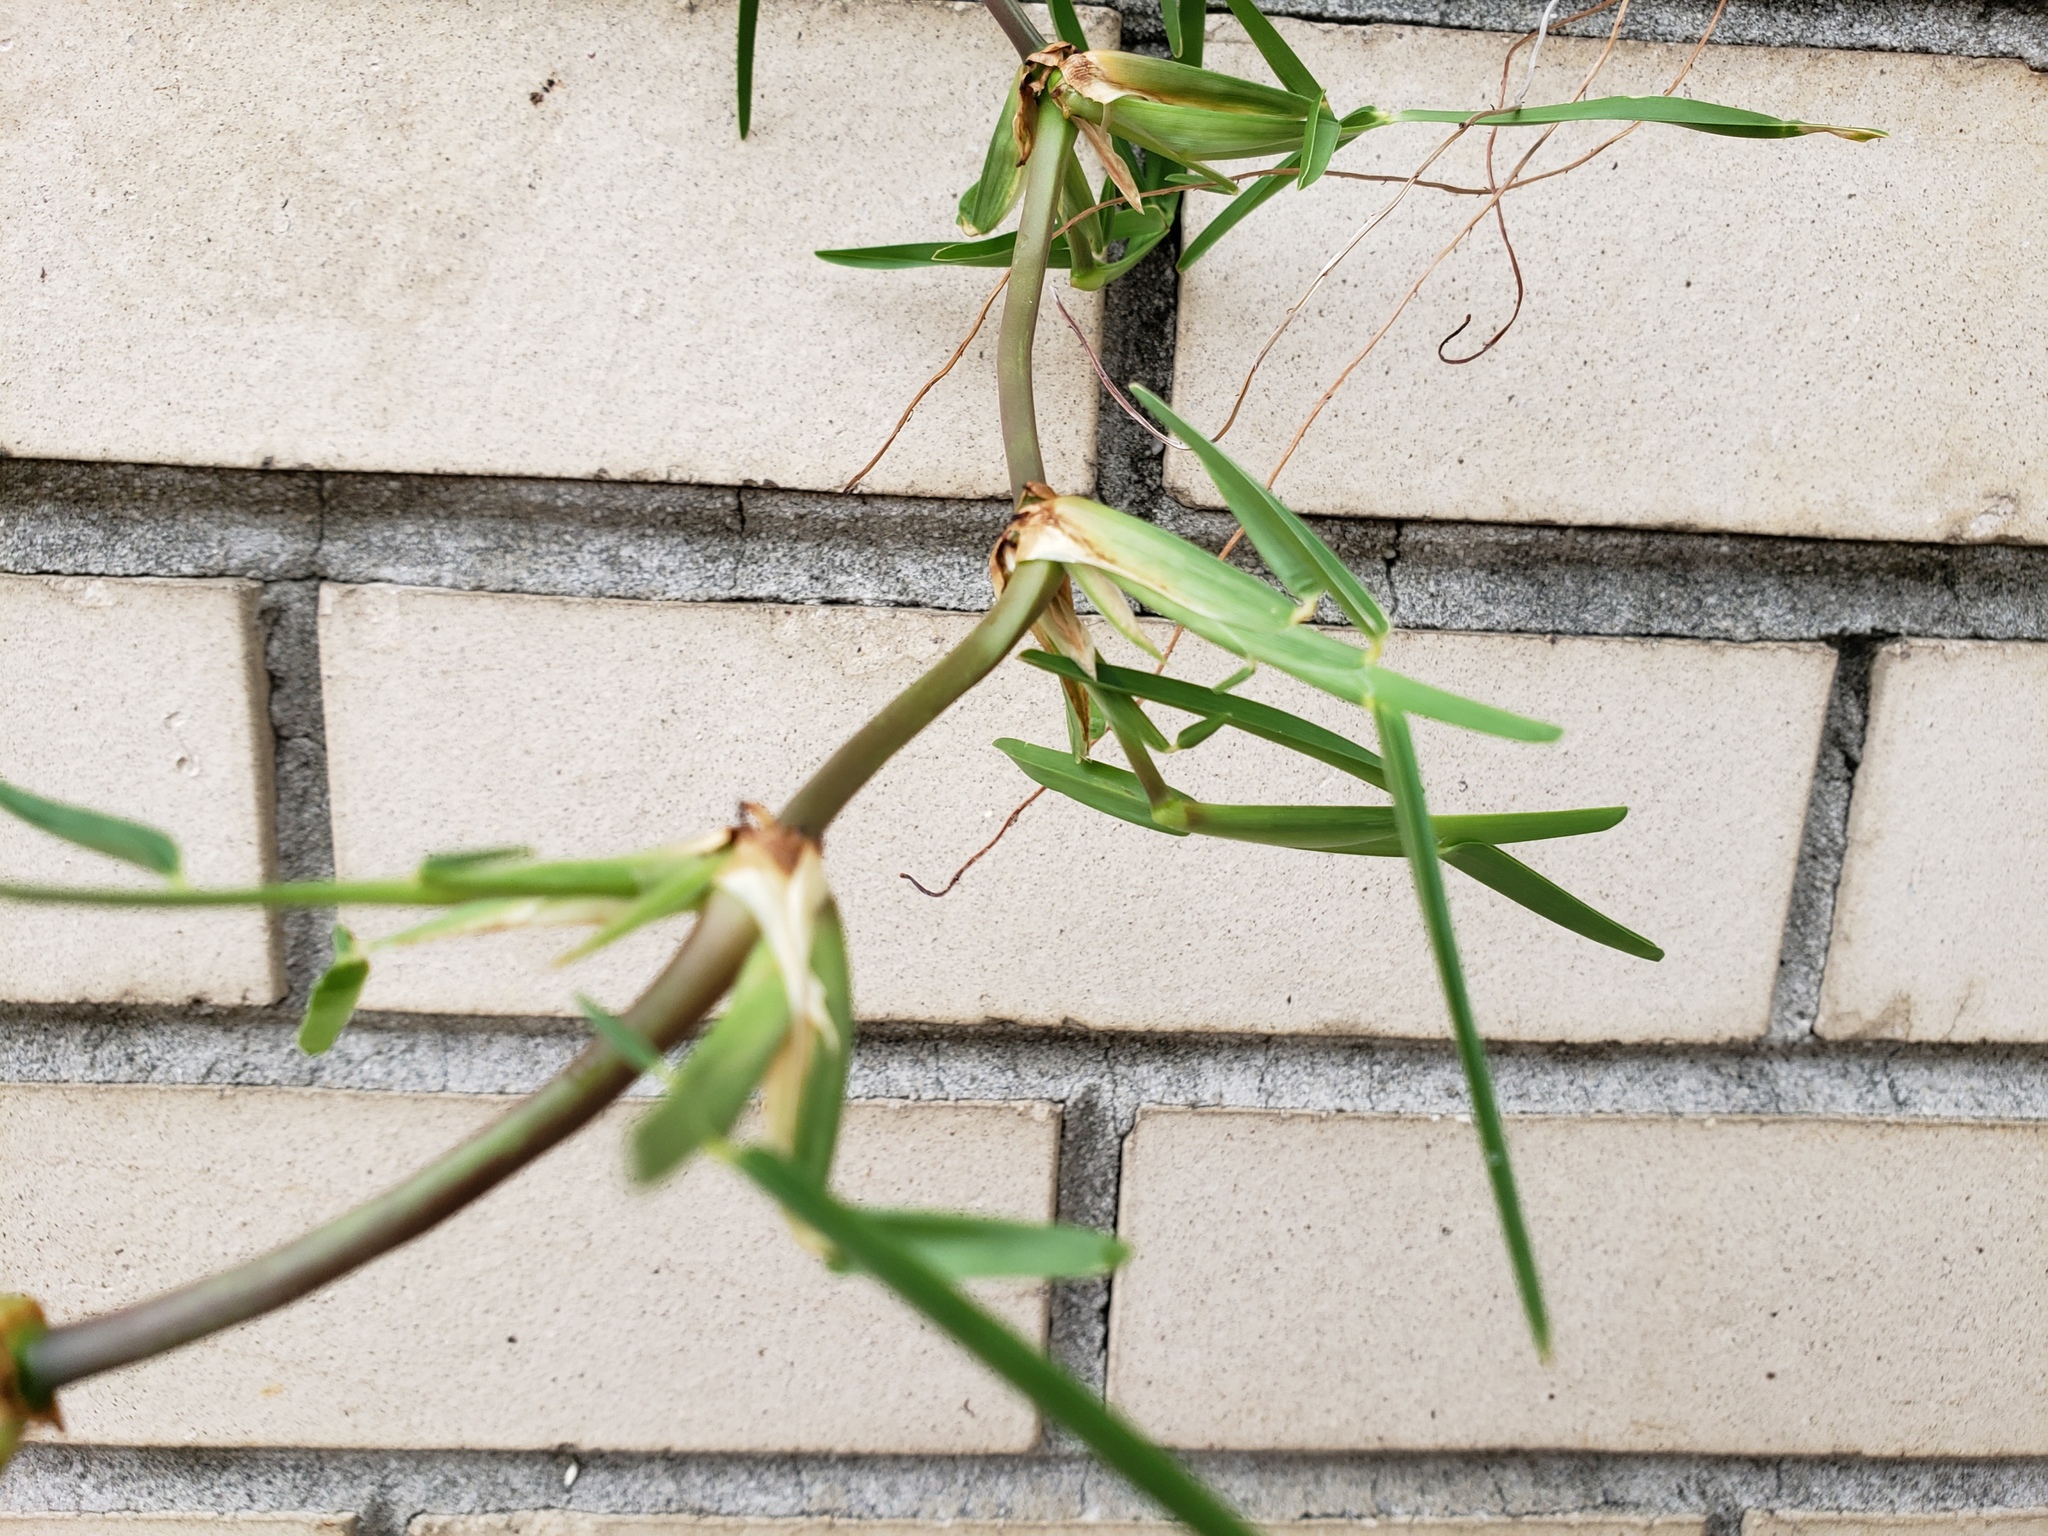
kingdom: Plantae
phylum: Tracheophyta
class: Liliopsida
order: Poales
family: Poaceae
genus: Stenotaphrum
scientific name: Stenotaphrum secundatum
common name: St. augustine grass
